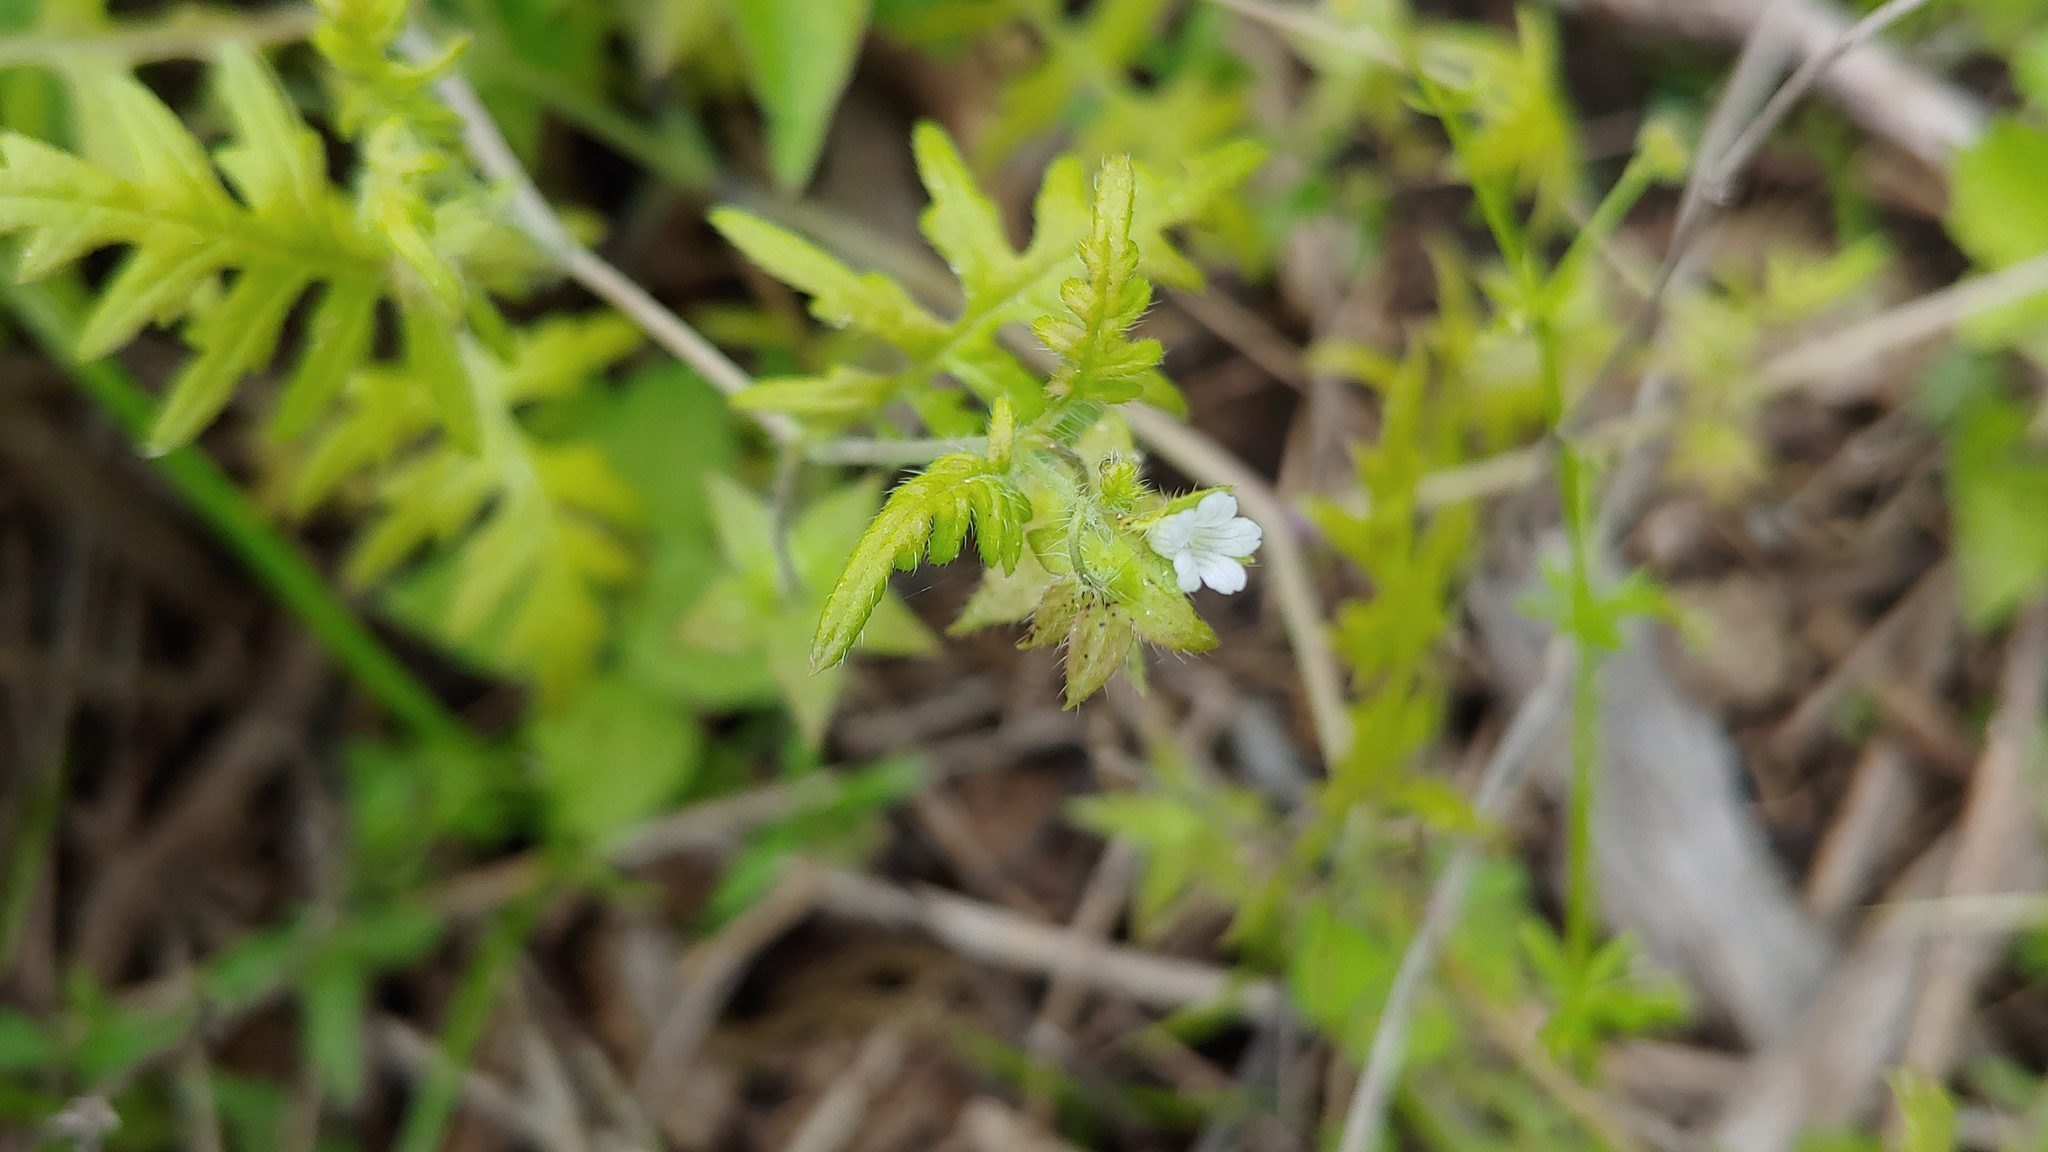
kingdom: Plantae
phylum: Tracheophyta
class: Magnoliopsida
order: Boraginales
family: Hydrophyllaceae
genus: Ellisia
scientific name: Ellisia nyctelea
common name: Aunt lucy
